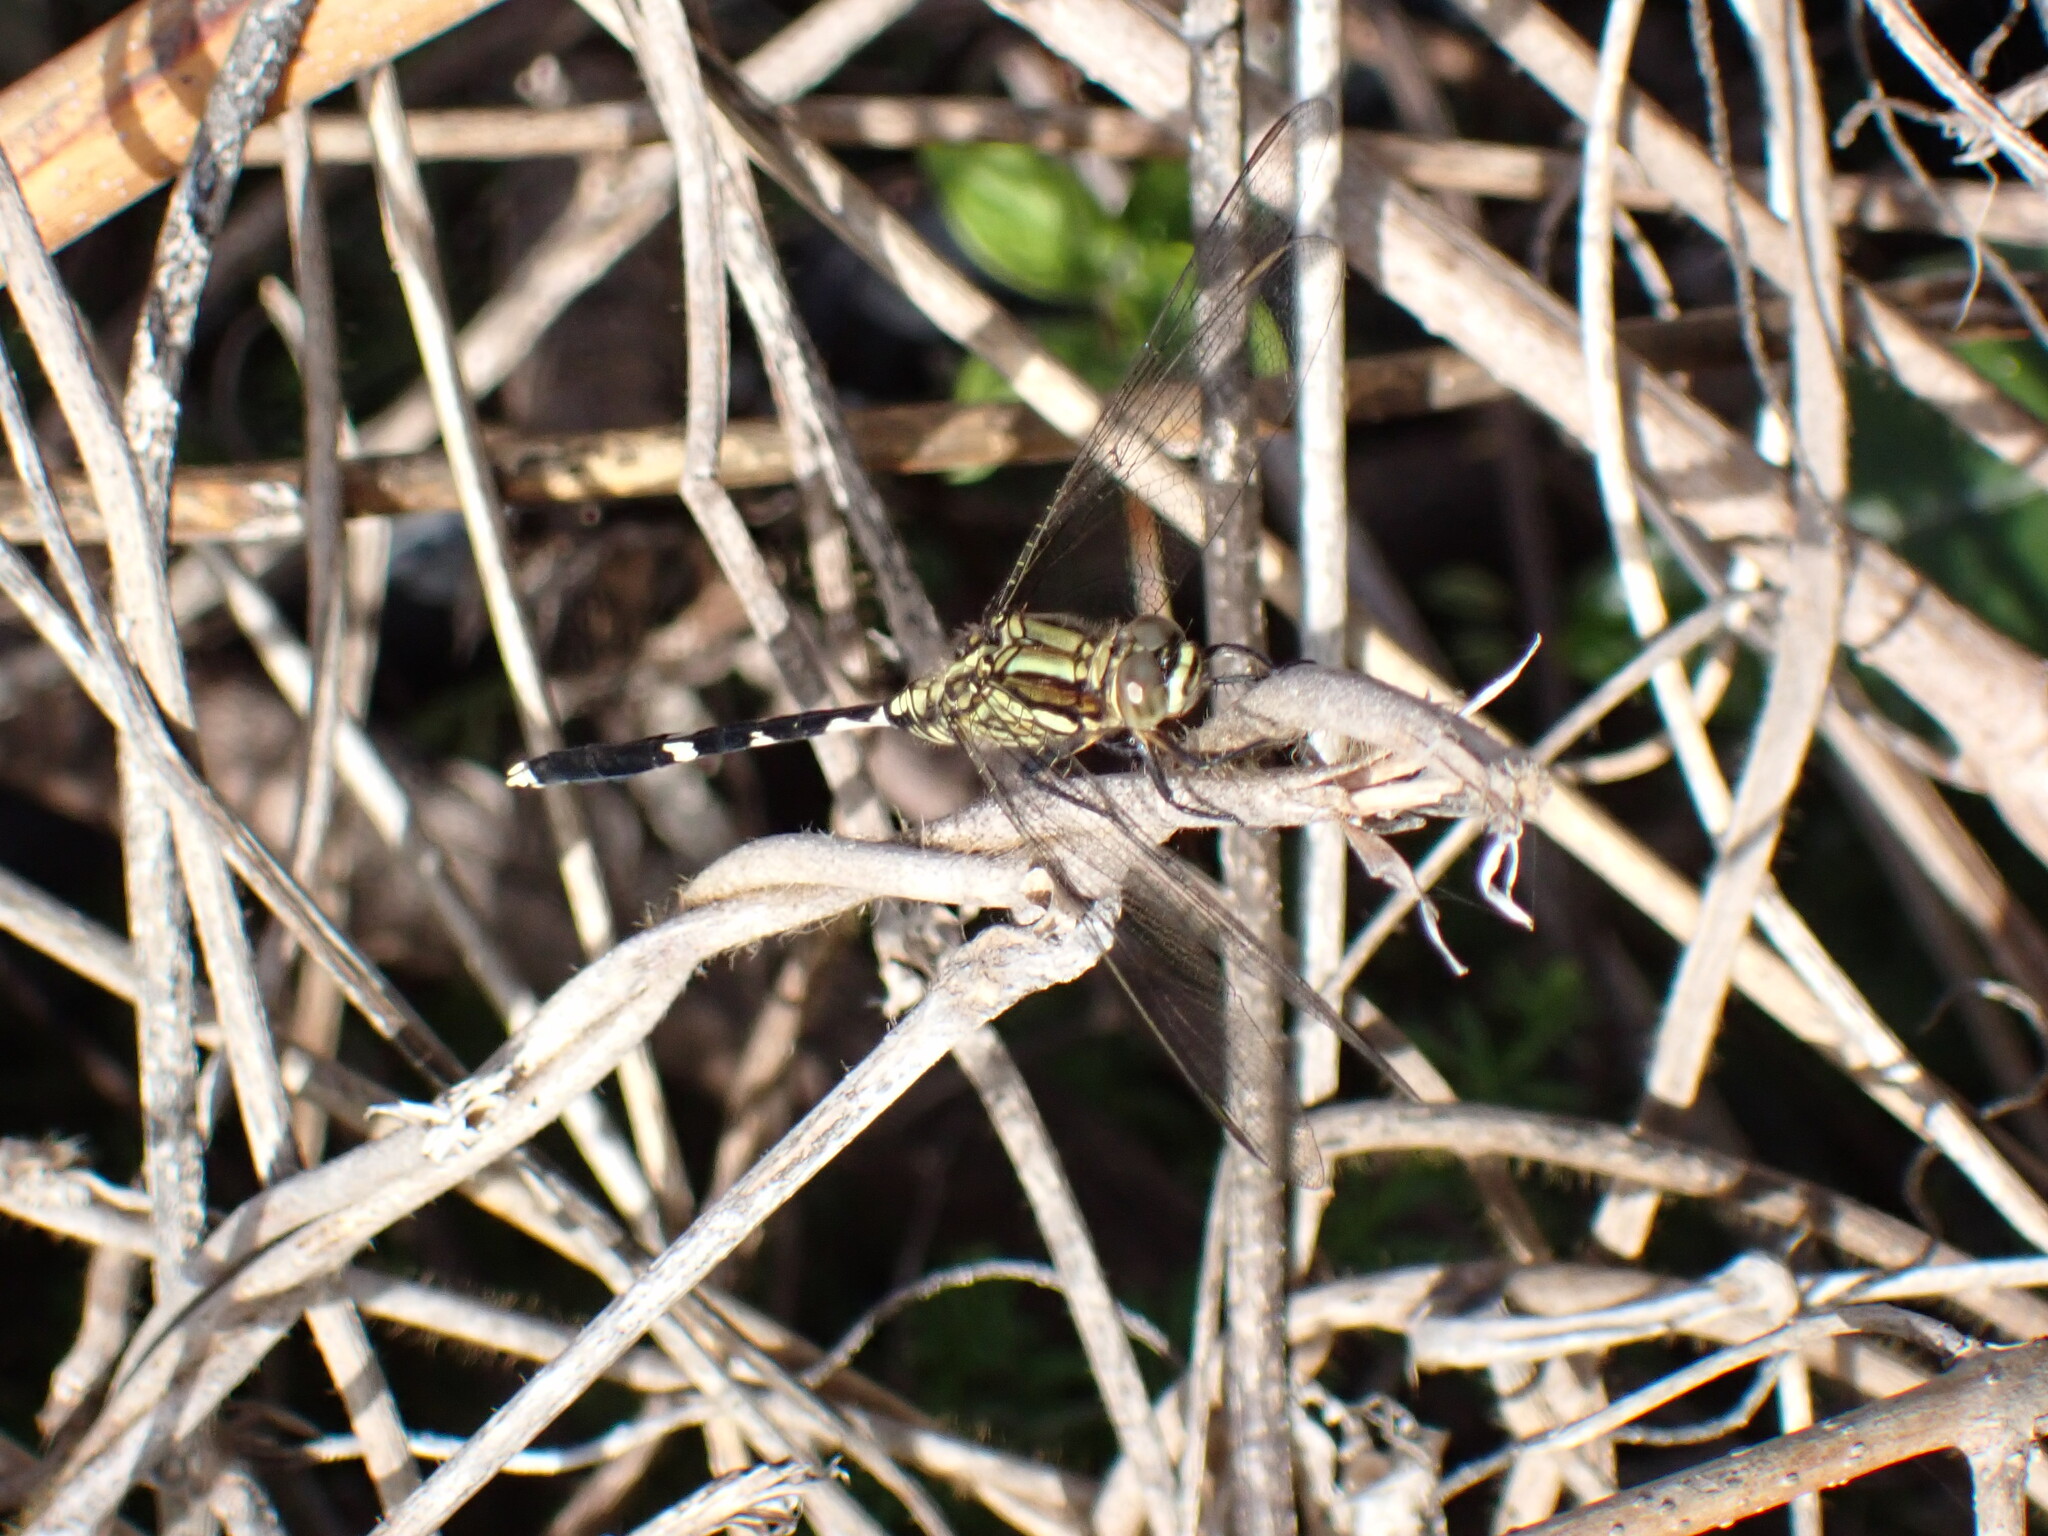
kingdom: Animalia
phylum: Arthropoda
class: Insecta
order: Odonata
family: Libellulidae
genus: Orthetrum
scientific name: Orthetrum sabina
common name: Slender skimmer
